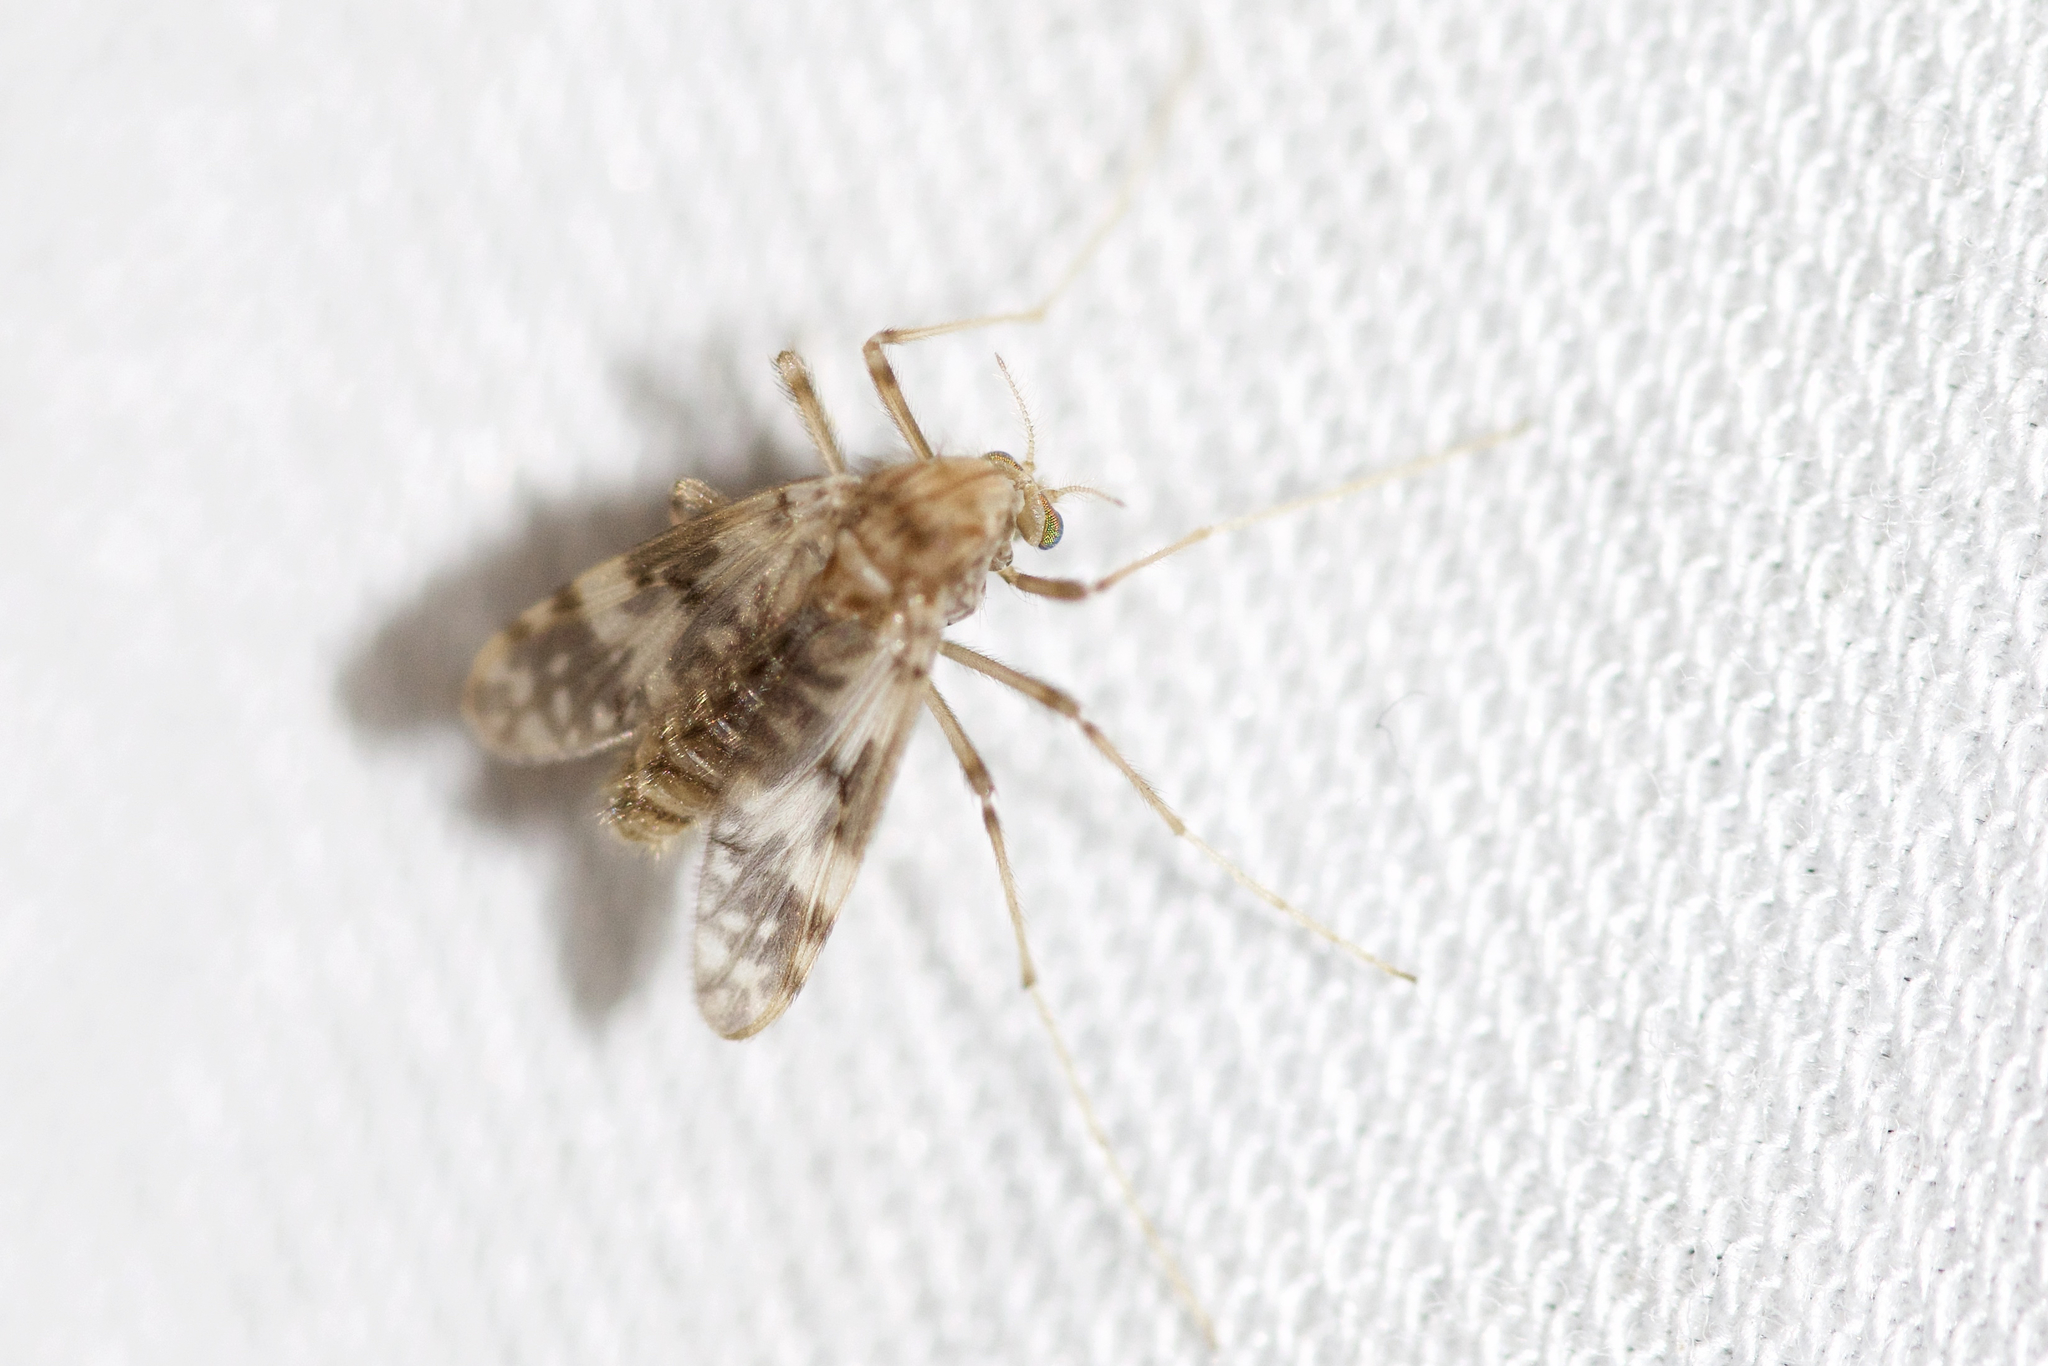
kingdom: Animalia
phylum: Arthropoda
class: Insecta
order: Diptera
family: Chironomidae
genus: Psectrotanypus
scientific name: Psectrotanypus dyari
